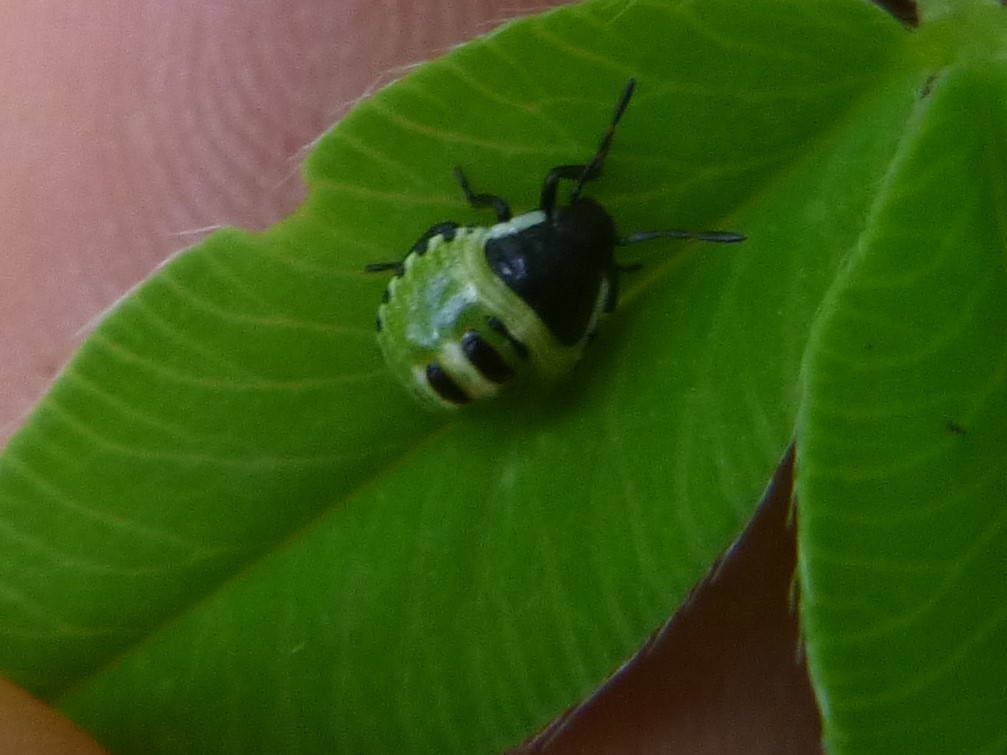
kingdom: Animalia
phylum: Arthropoda
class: Insecta
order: Hemiptera
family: Pentatomidae
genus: Palomena
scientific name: Palomena prasina
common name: Green shieldbug
